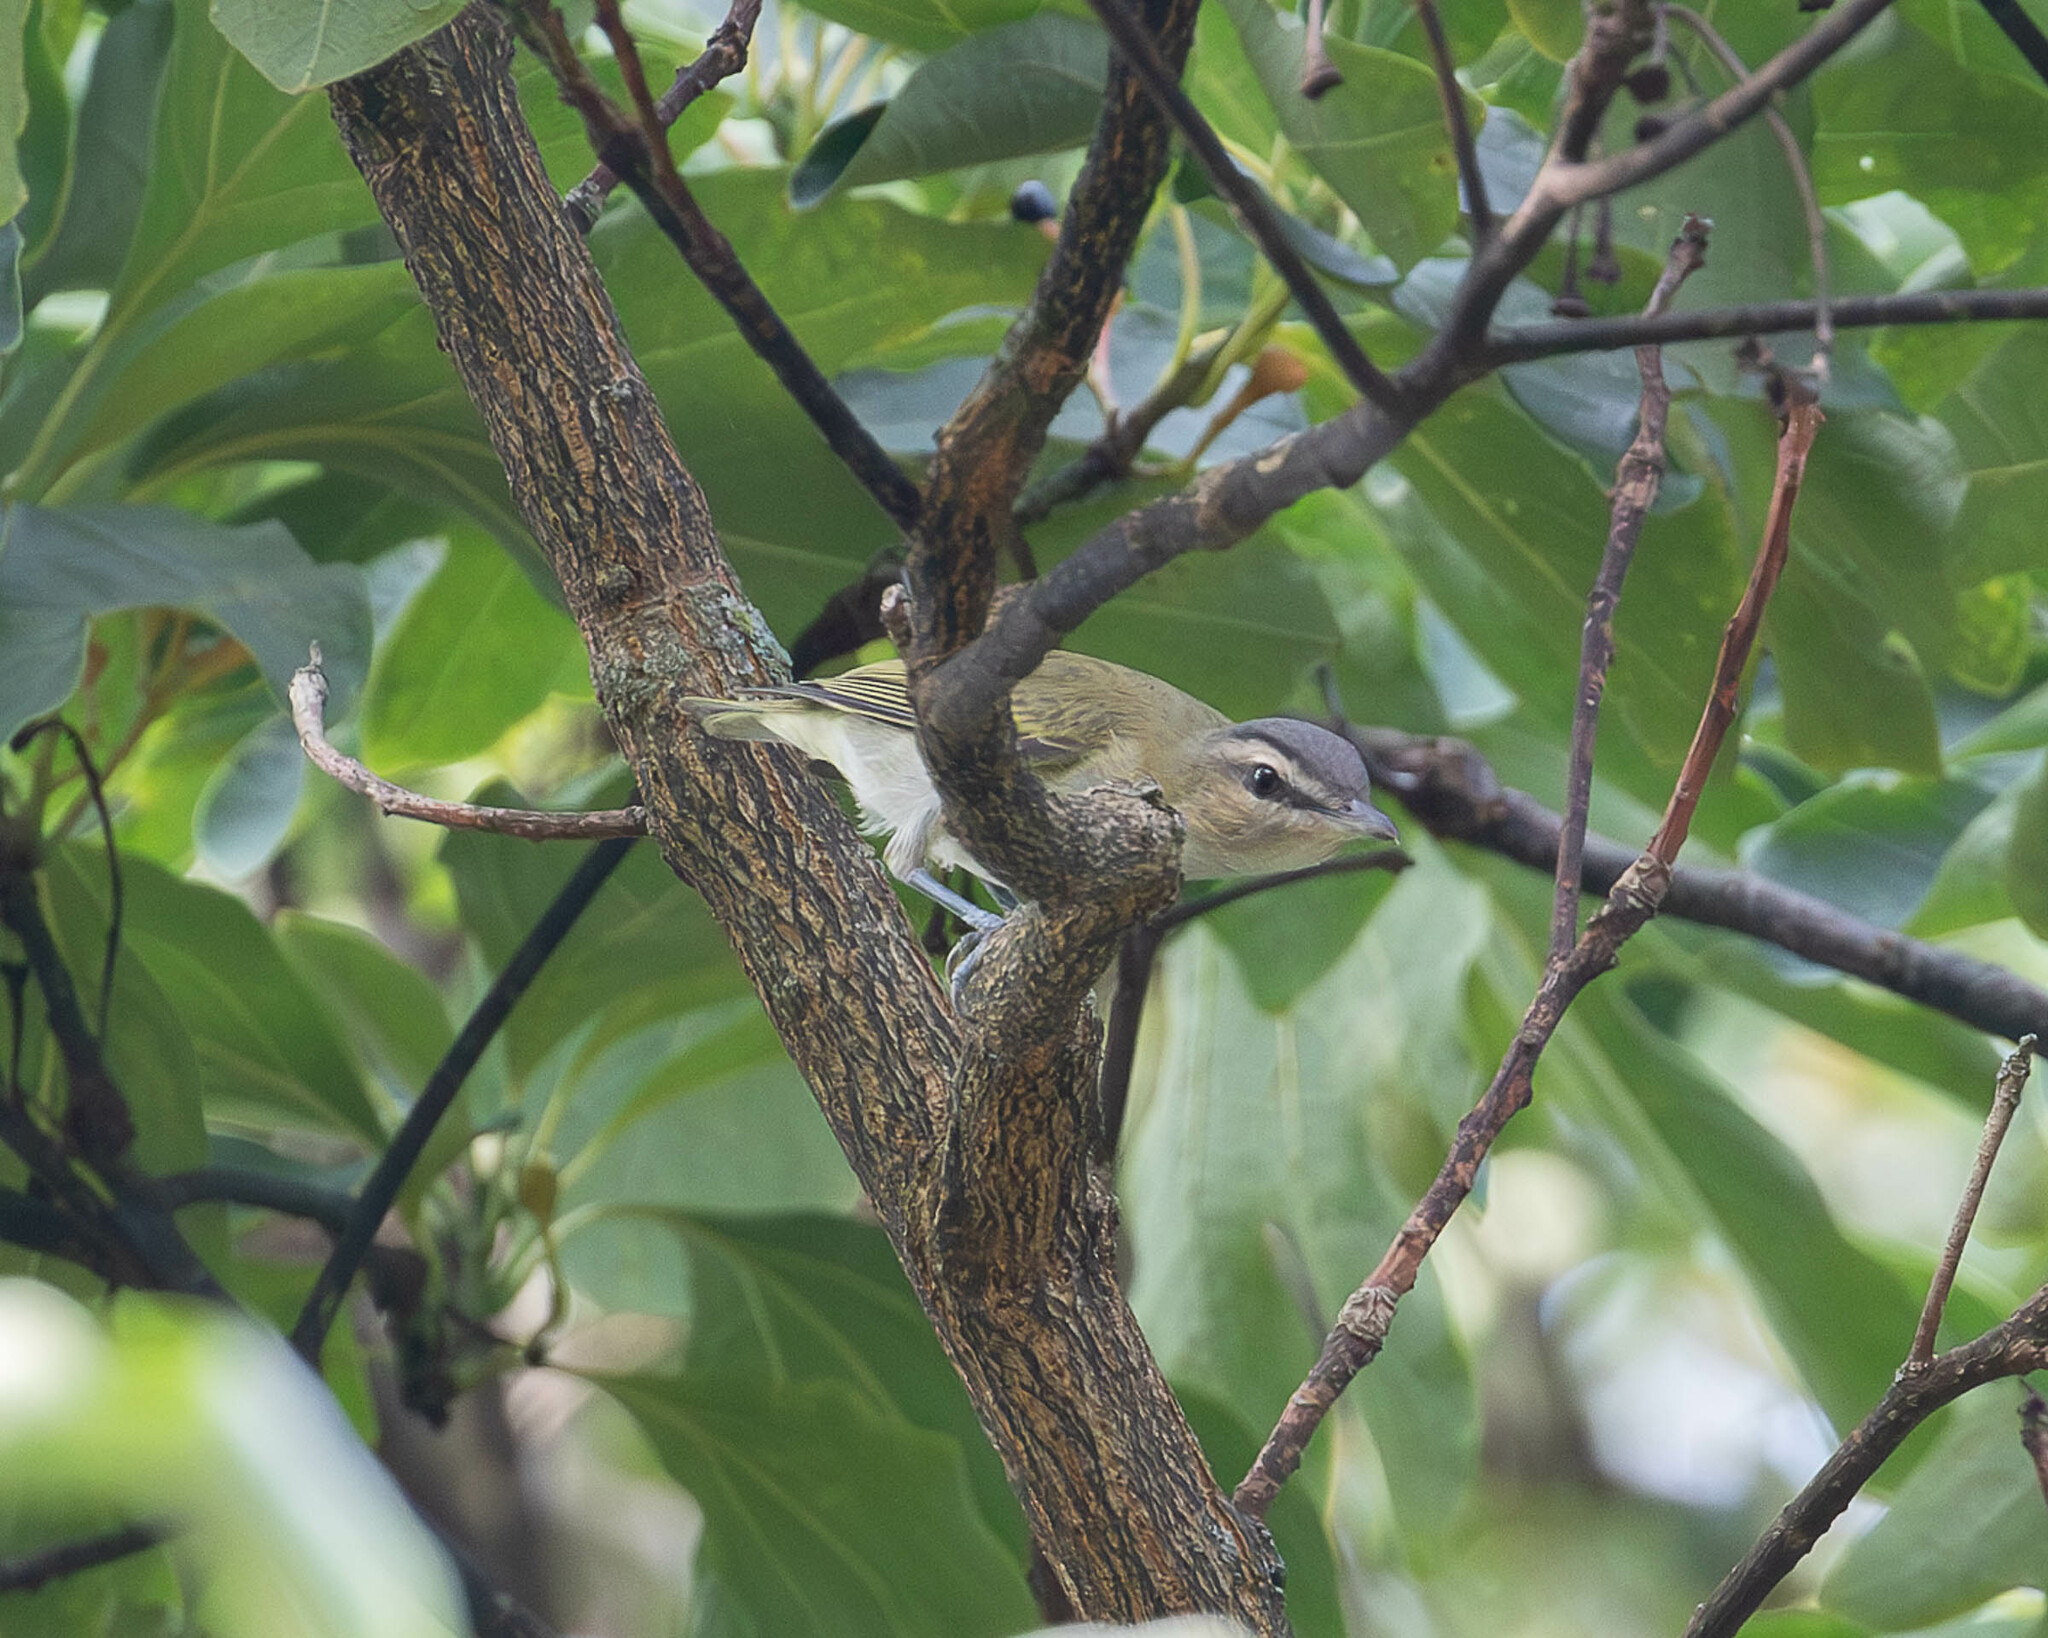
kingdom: Animalia
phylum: Chordata
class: Aves
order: Passeriformes
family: Vireonidae
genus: Vireo
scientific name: Vireo olivaceus
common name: Red-eyed vireo
